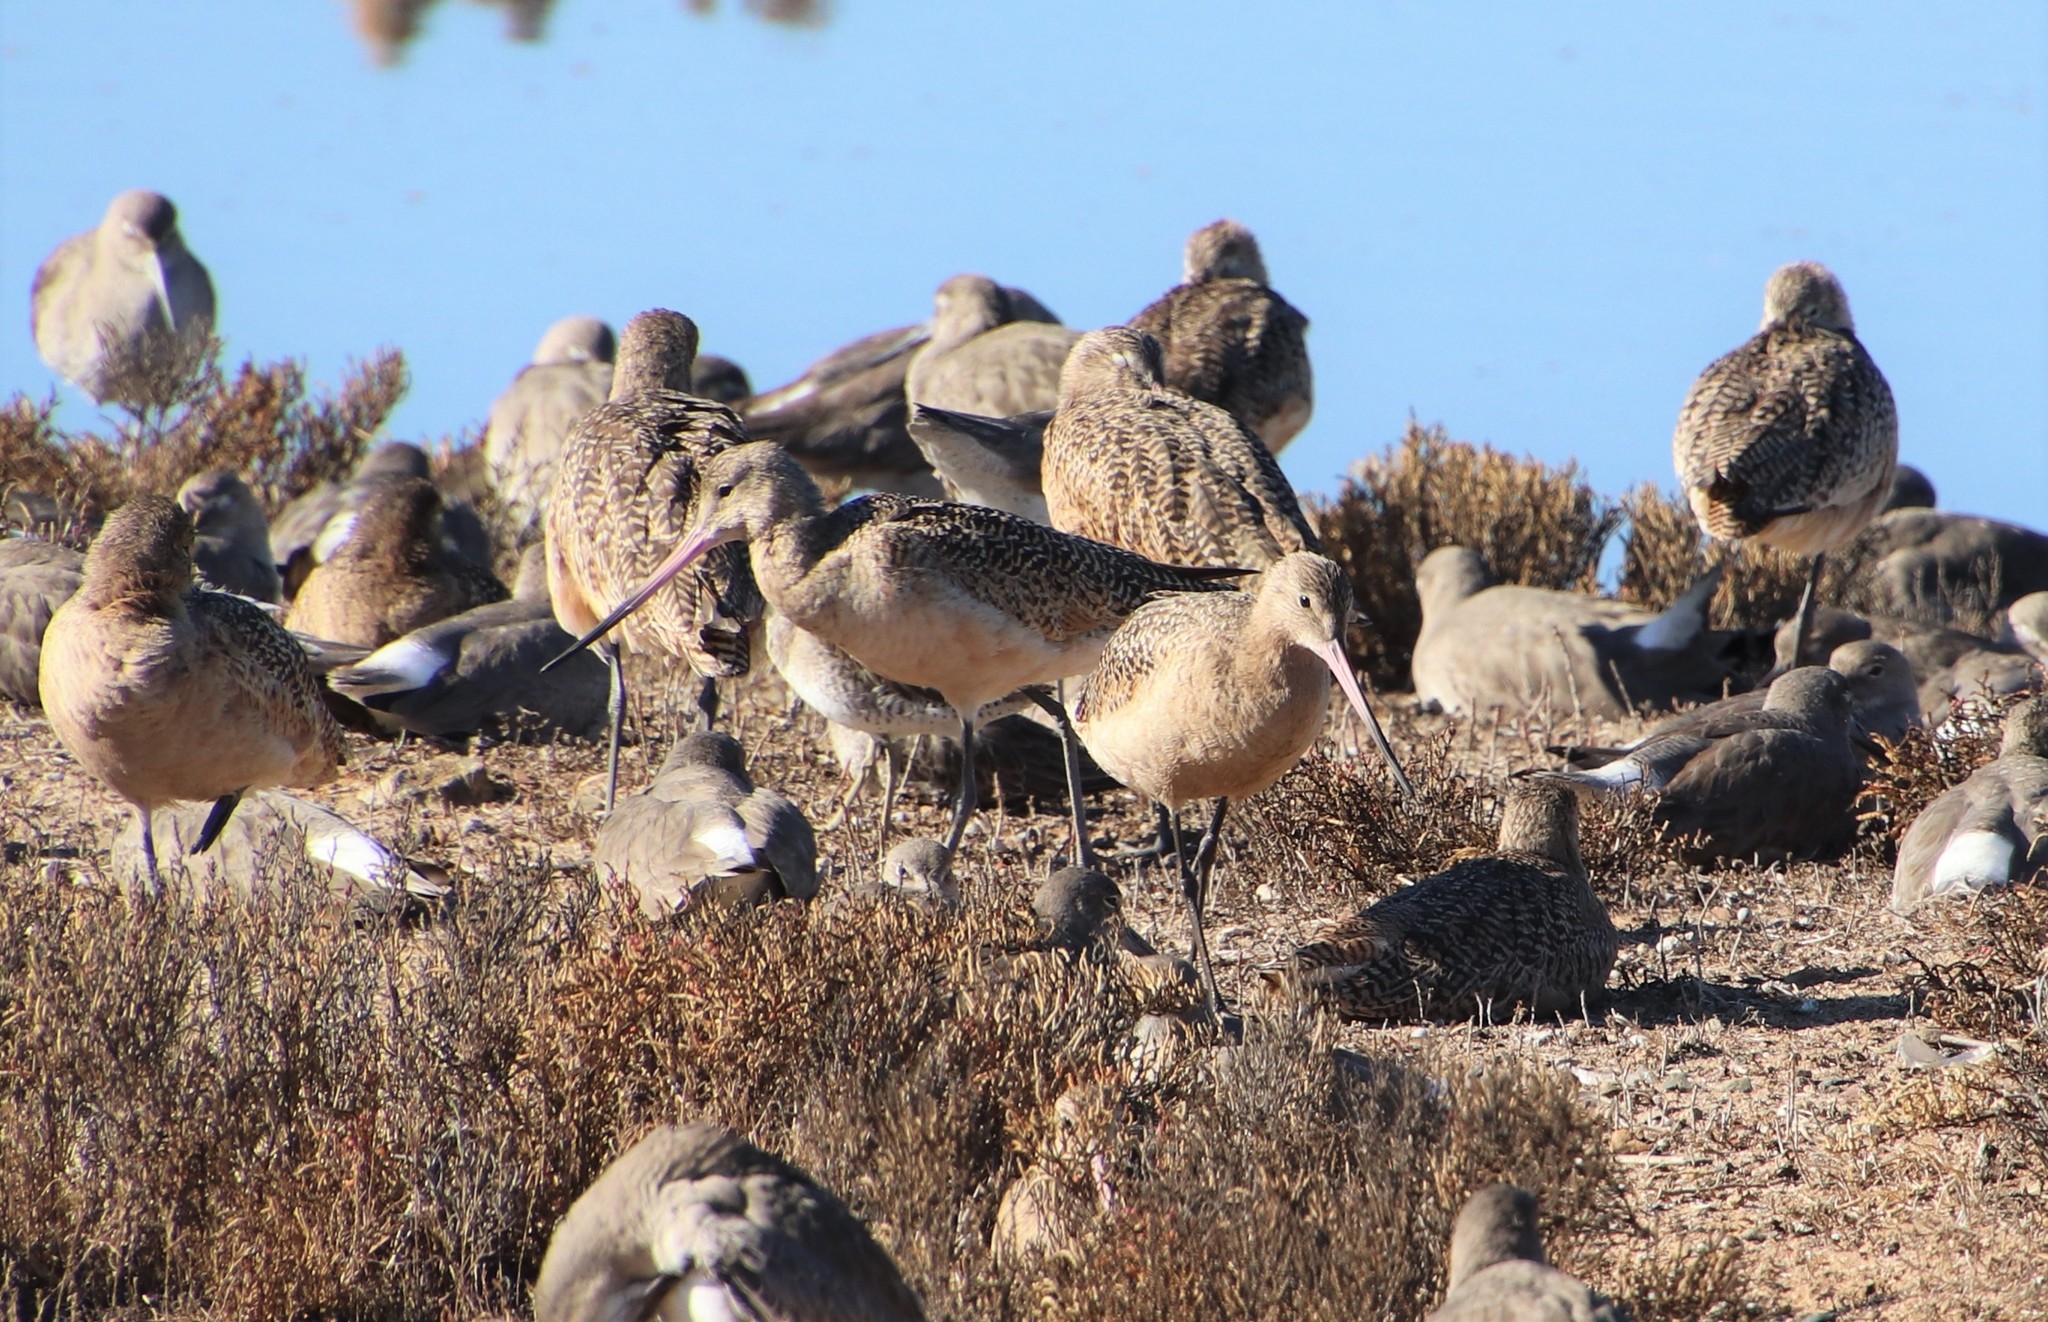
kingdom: Animalia
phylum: Chordata
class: Aves
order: Charadriiformes
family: Scolopacidae
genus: Limosa
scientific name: Limosa fedoa
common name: Marbled godwit
